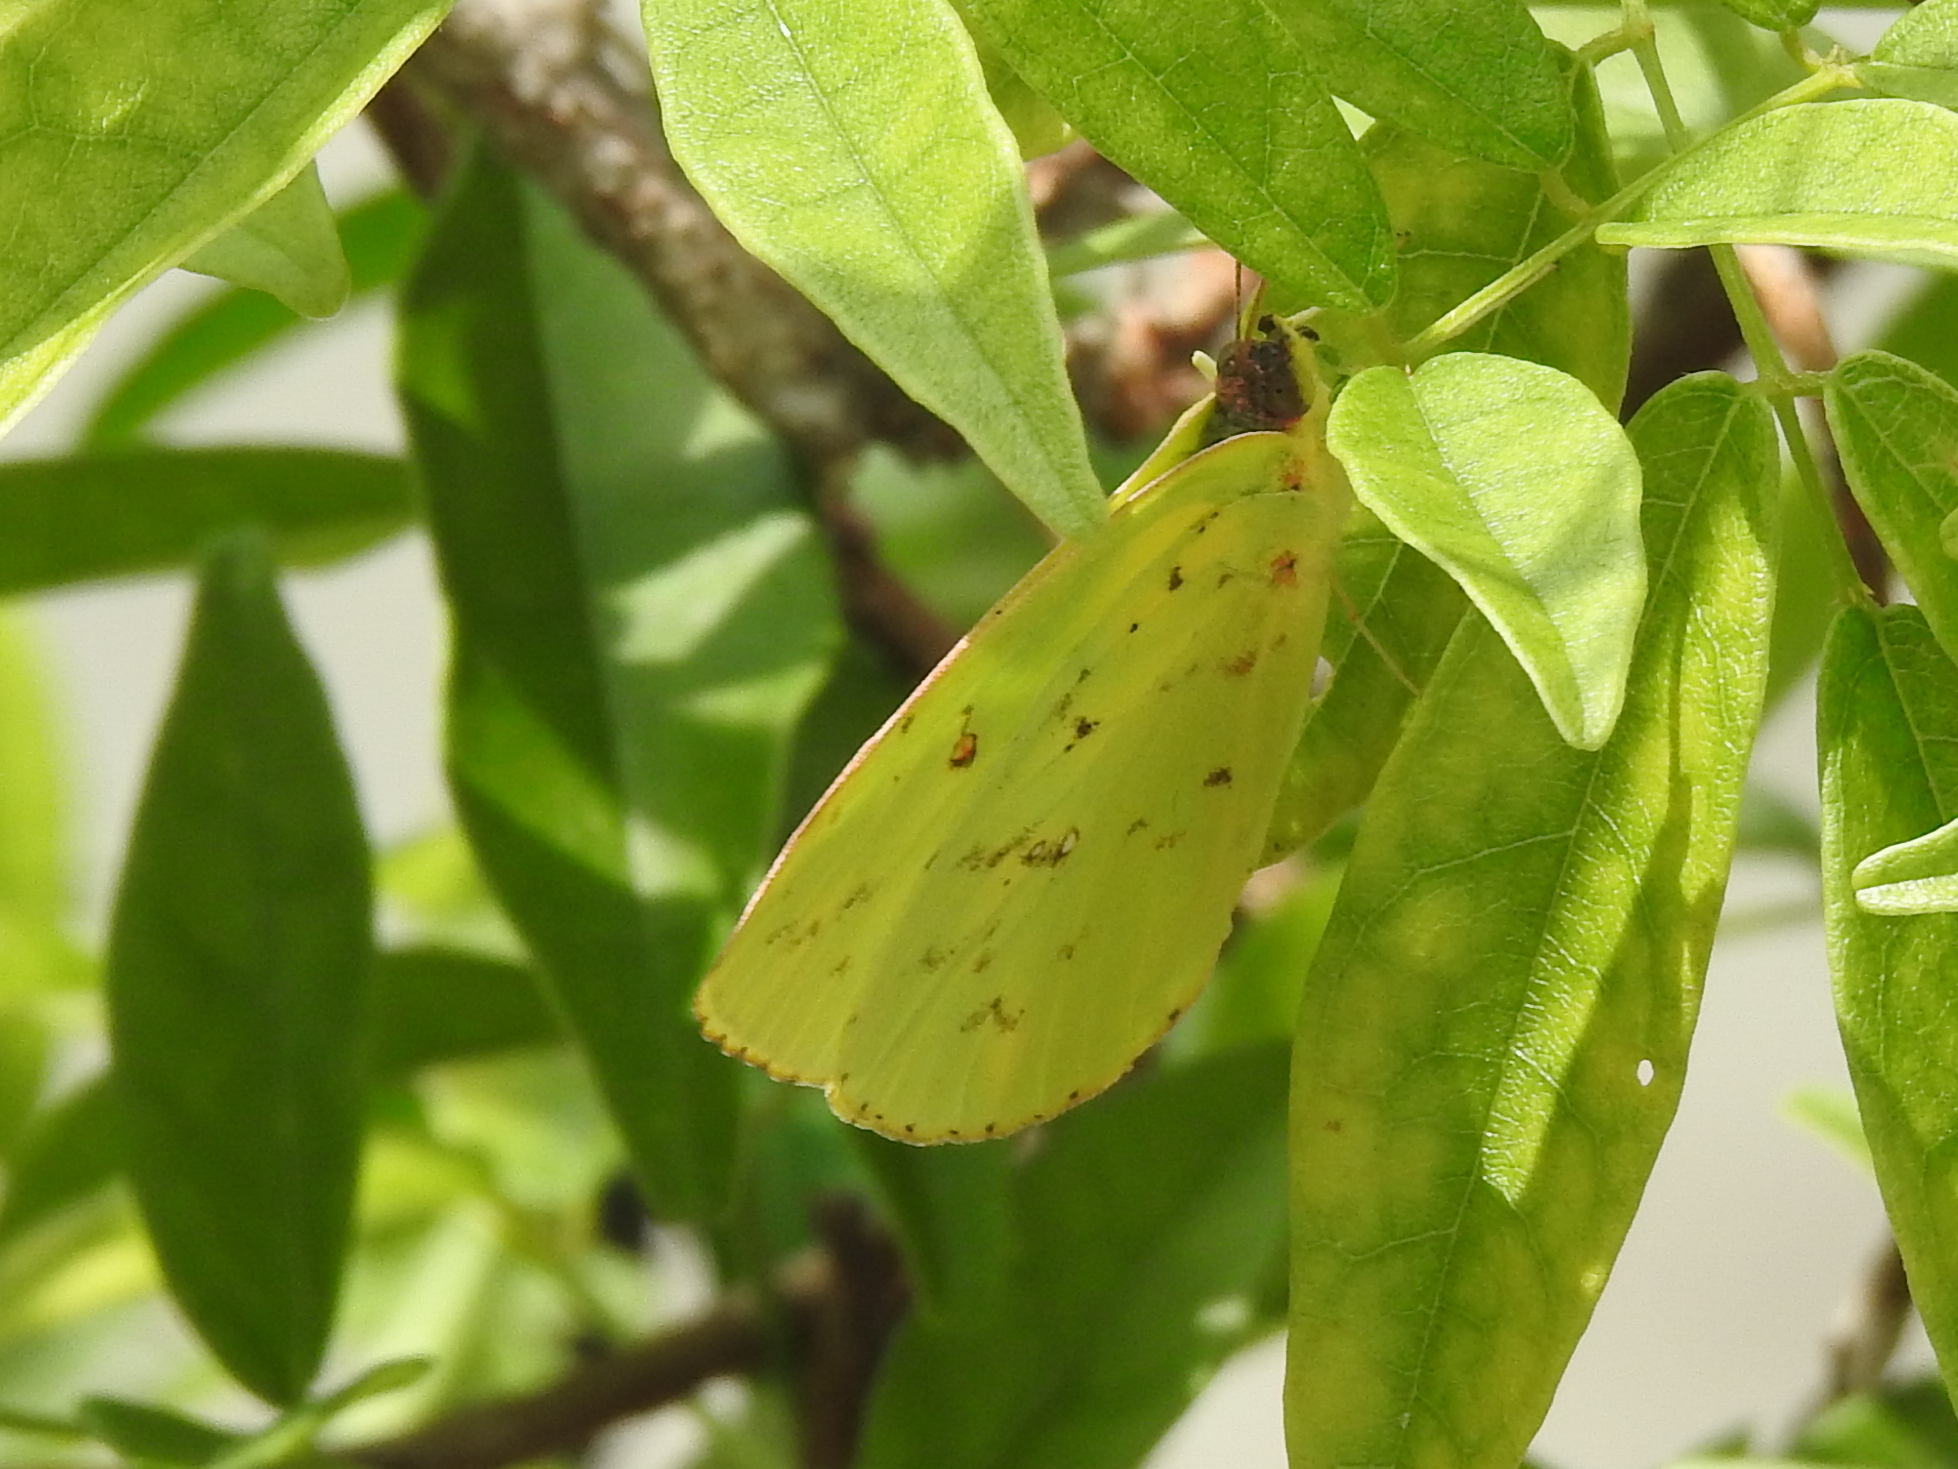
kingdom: Animalia
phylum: Arthropoda
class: Insecta
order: Lepidoptera
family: Pieridae
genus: Phoebis
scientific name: Phoebis sennae
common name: Cloudless sulphur
